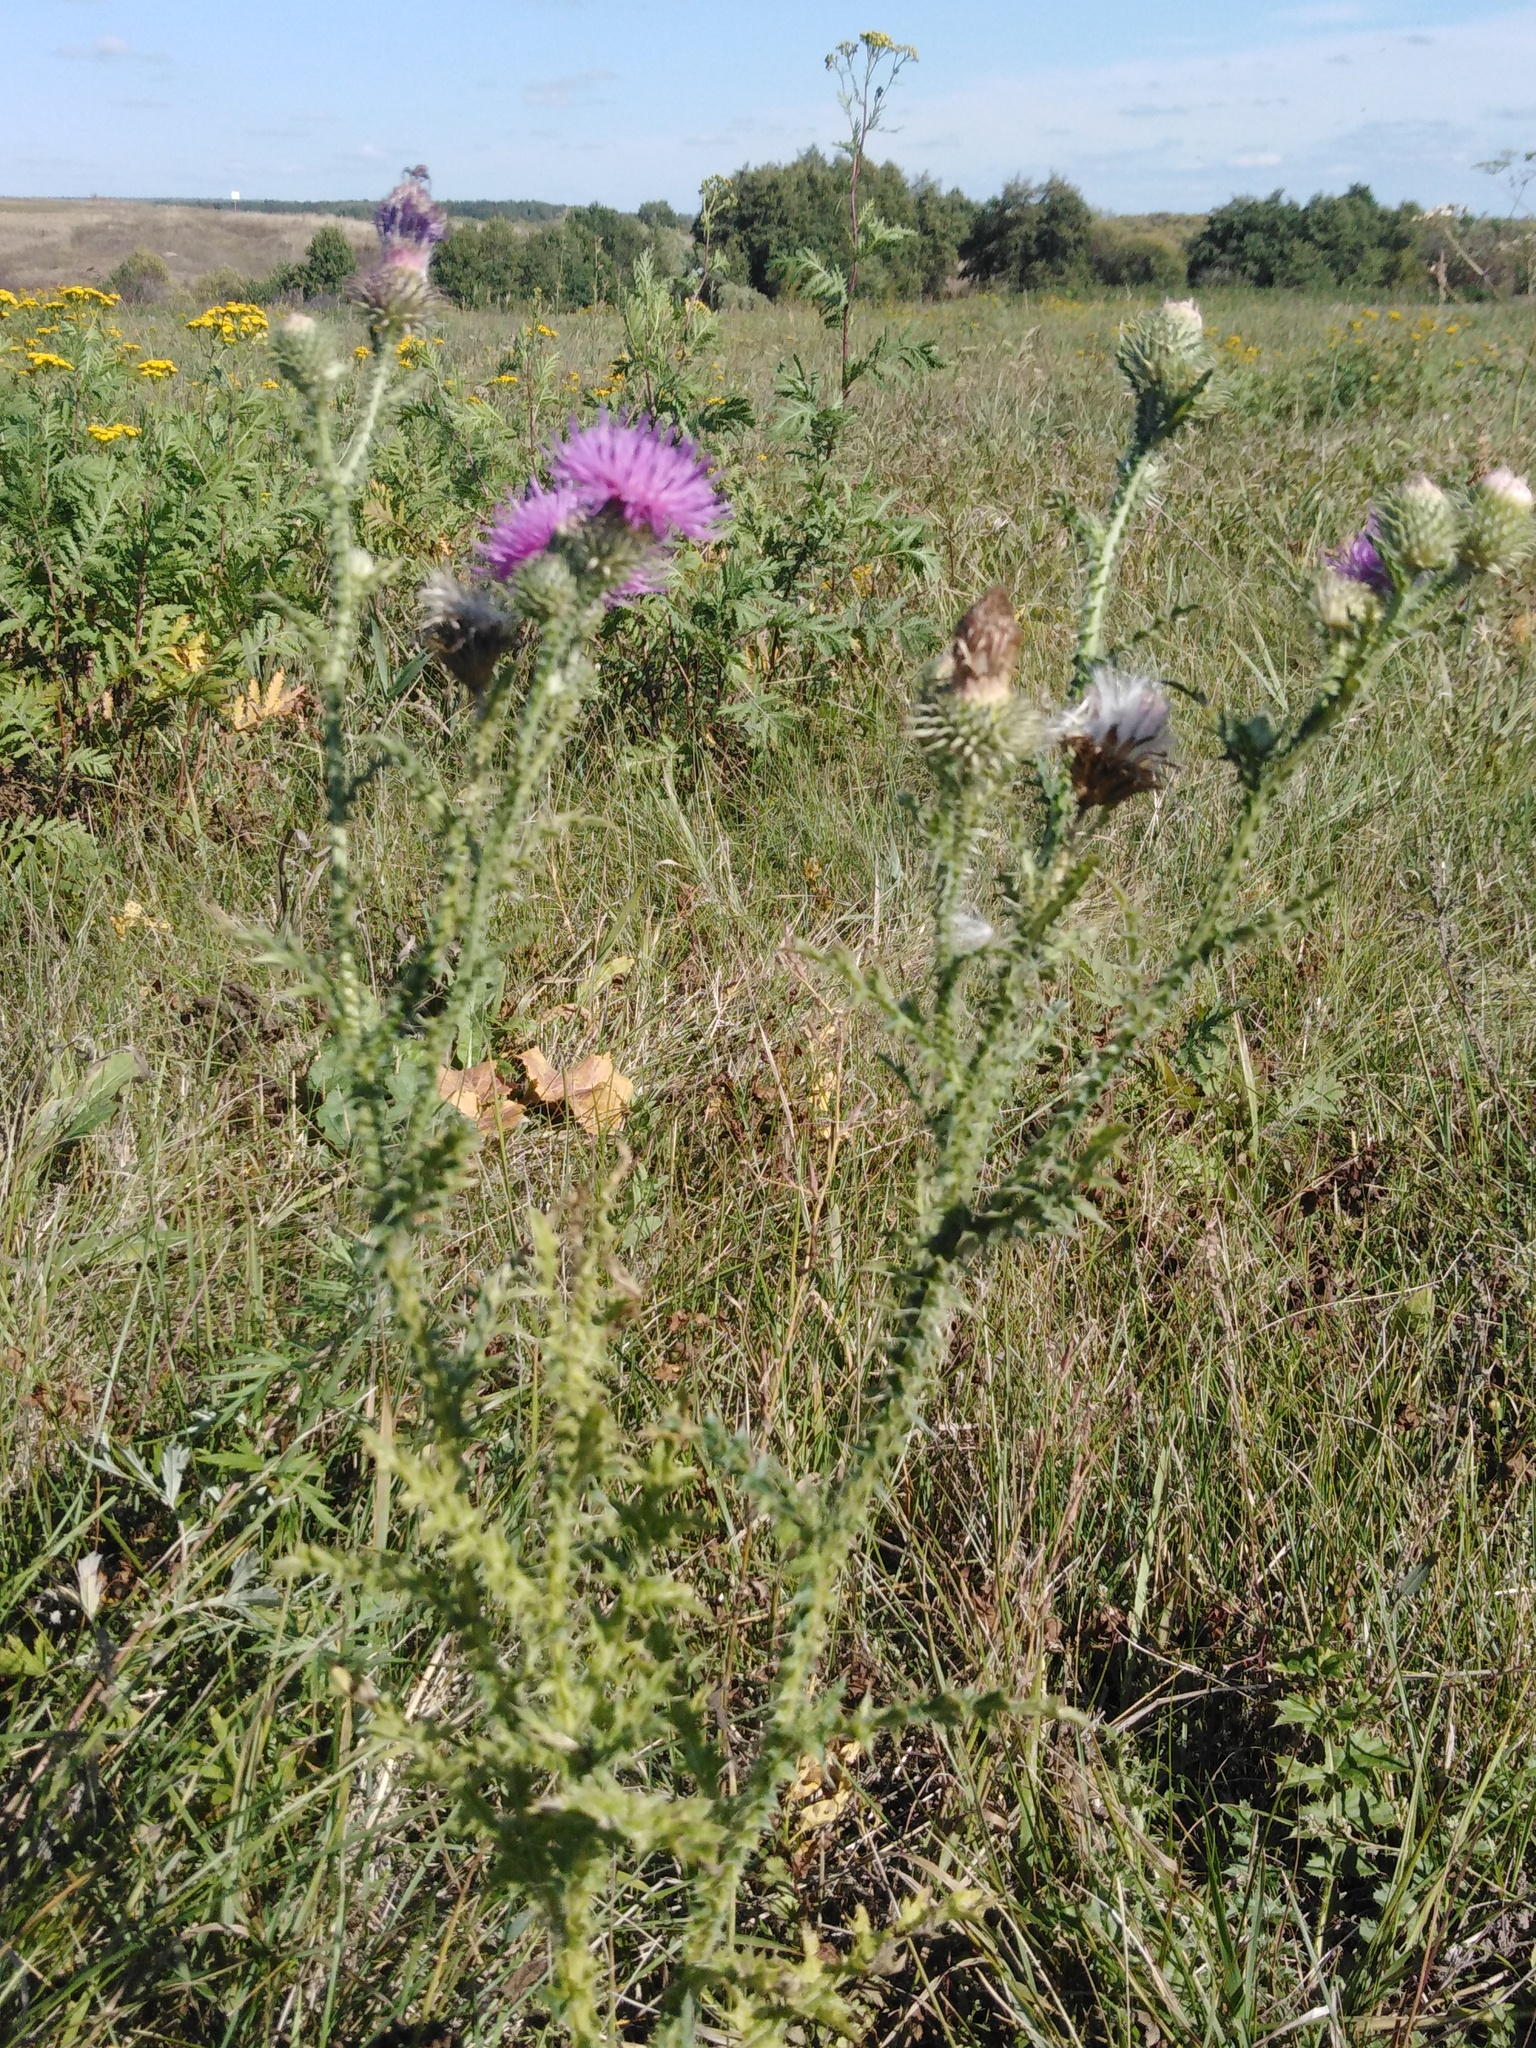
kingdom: Plantae
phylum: Tracheophyta
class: Magnoliopsida
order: Asterales
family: Asteraceae
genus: Carduus
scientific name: Carduus acanthoides
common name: Plumeless thistle
